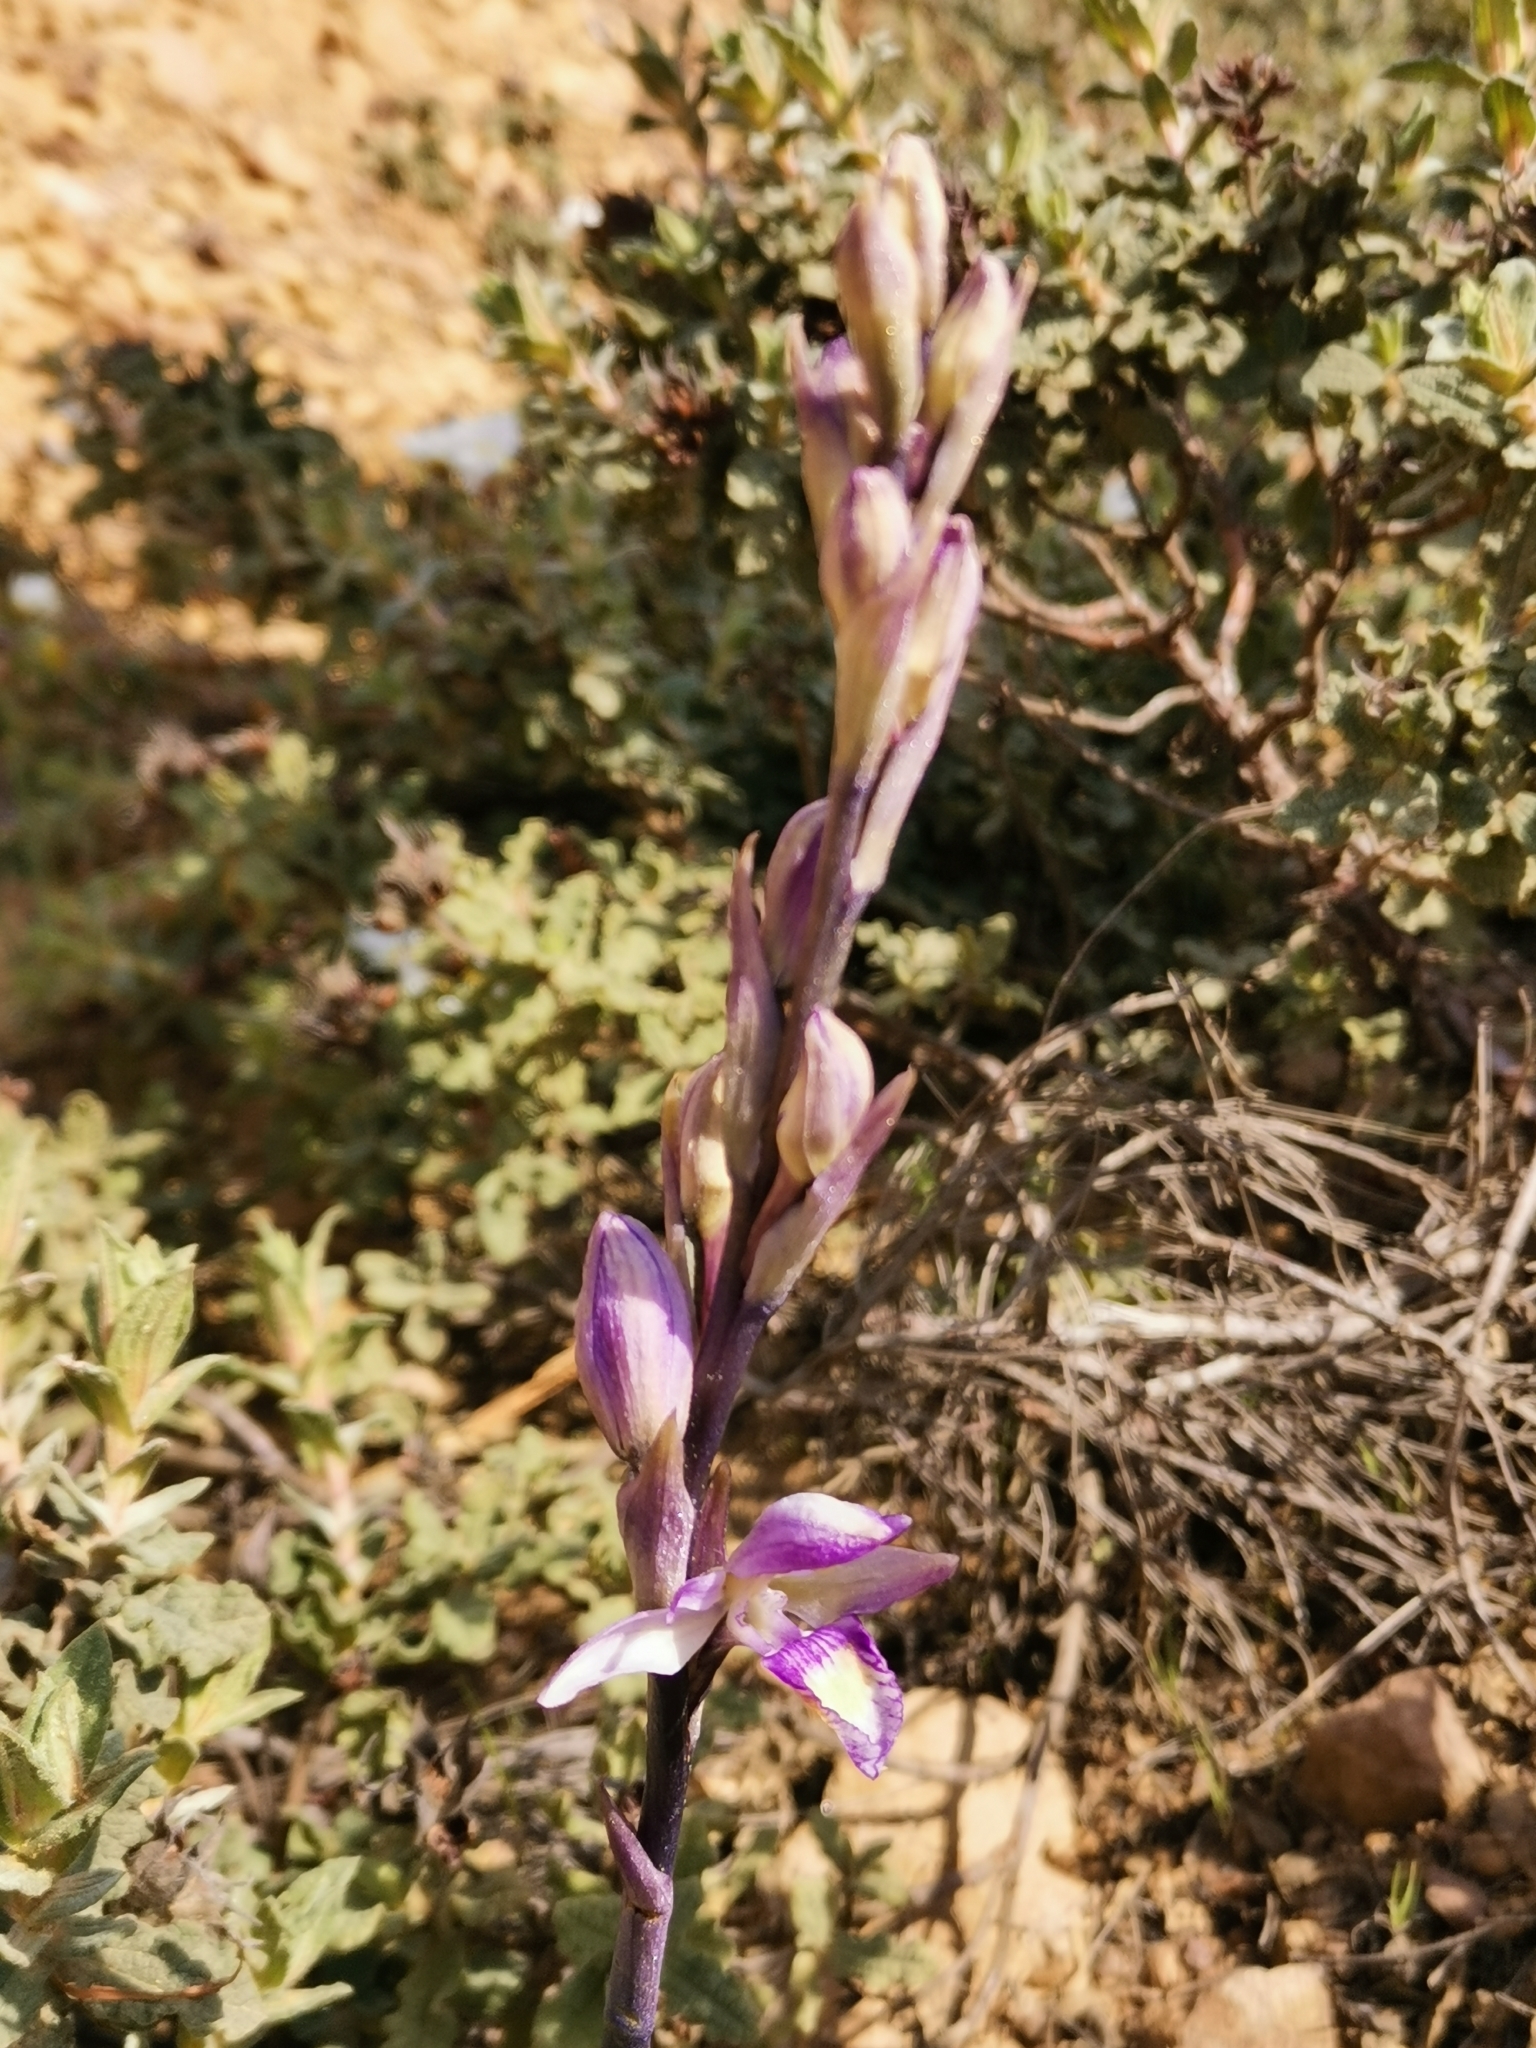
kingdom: Plantae
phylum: Tracheophyta
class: Liliopsida
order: Asparagales
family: Orchidaceae
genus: Limodorum
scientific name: Limodorum abortivum
